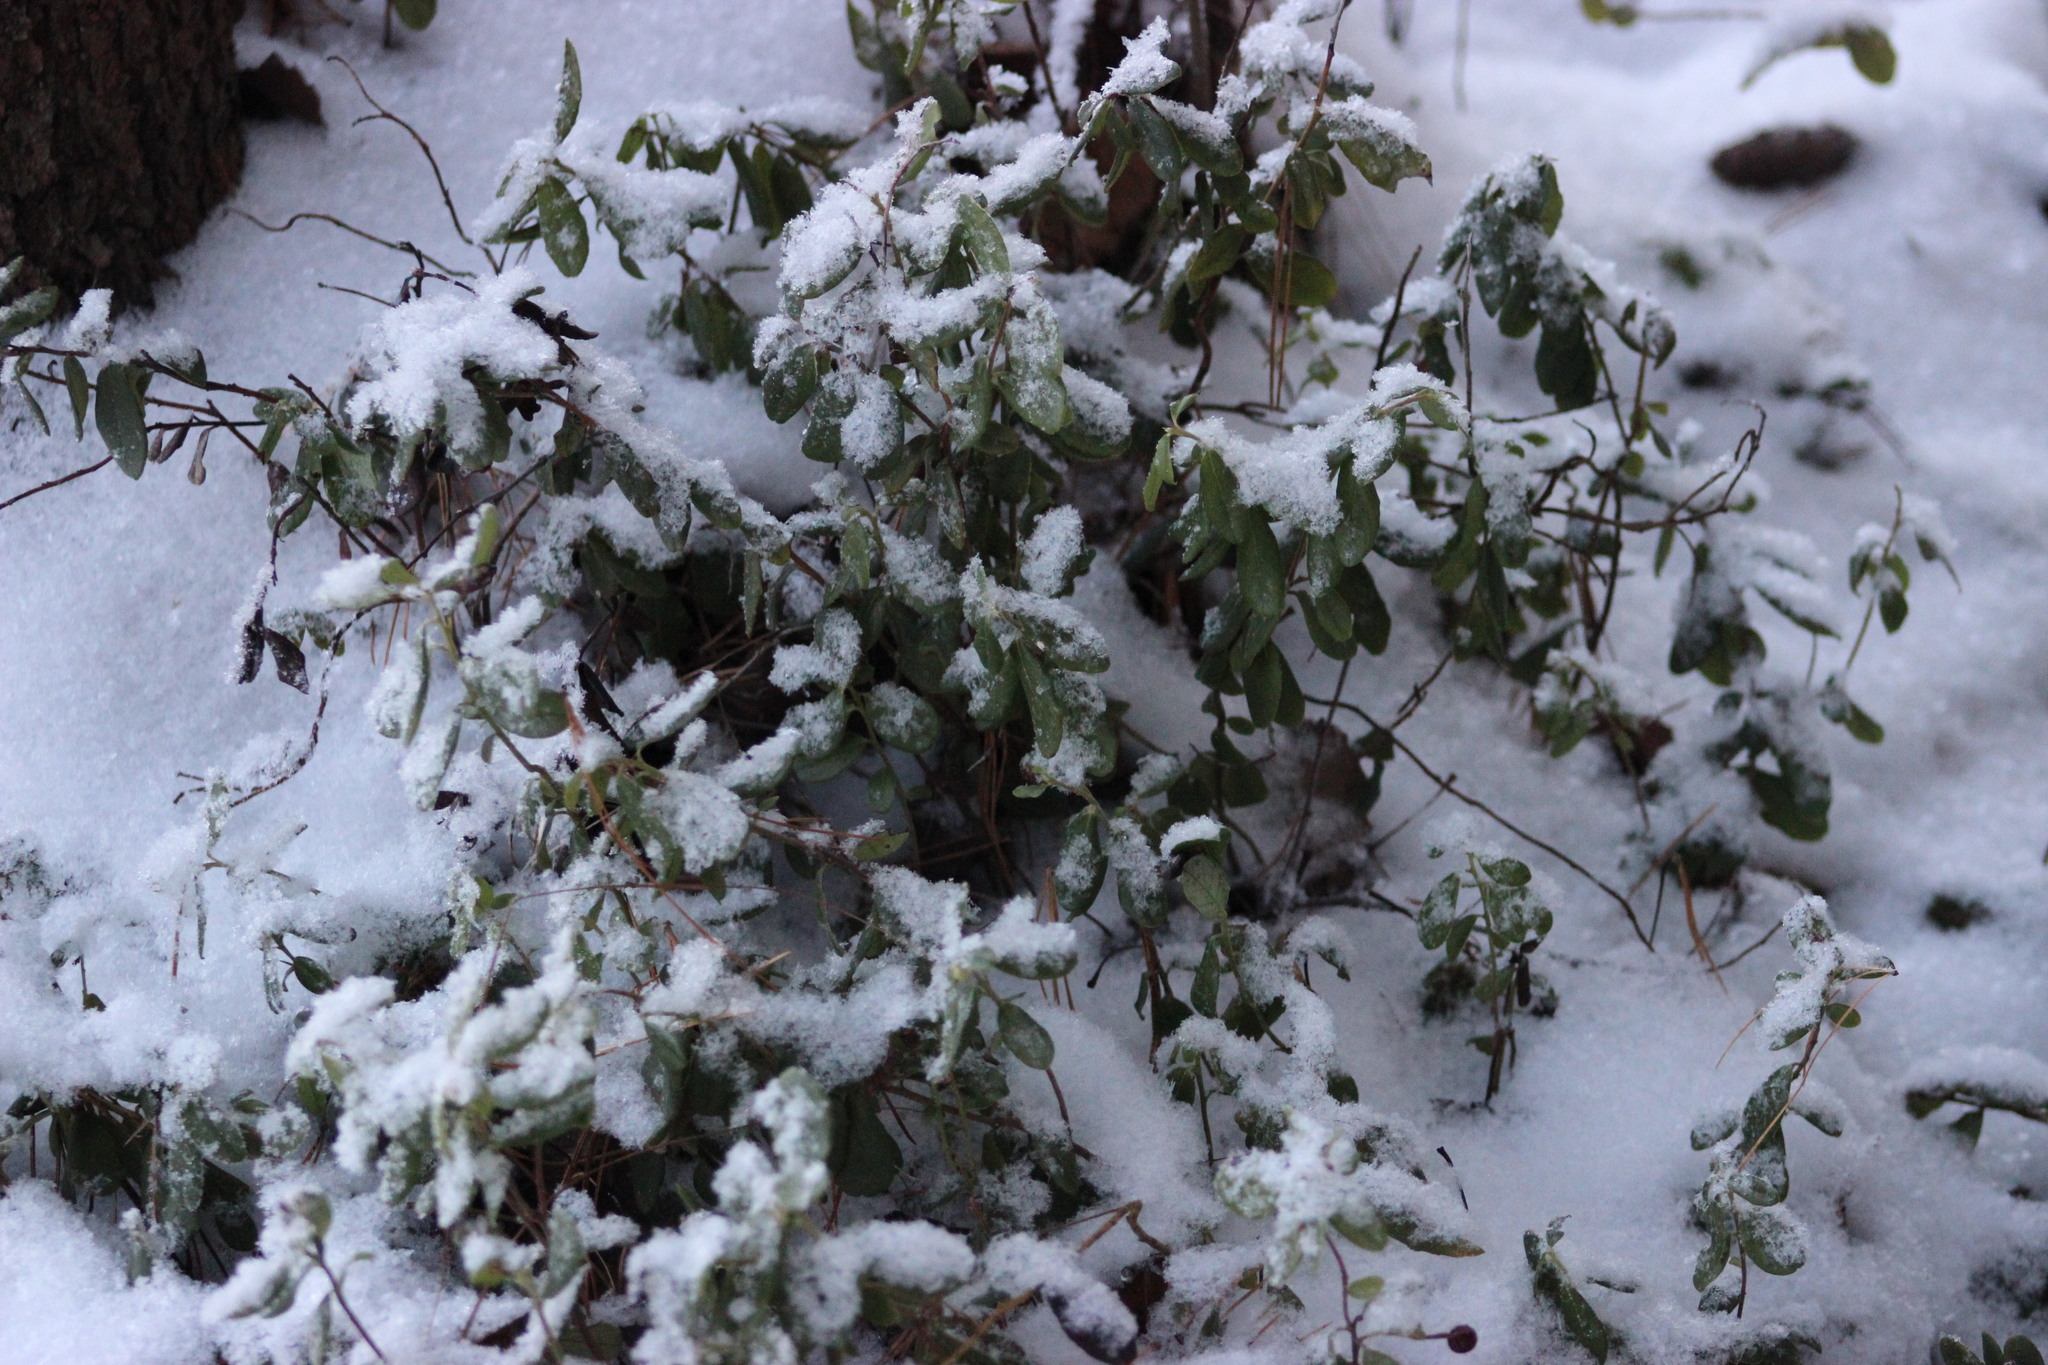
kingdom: Plantae
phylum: Tracheophyta
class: Magnoliopsida
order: Ericales
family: Ericaceae
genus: Vaccinium
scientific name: Vaccinium vitis-idaea
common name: Cowberry
